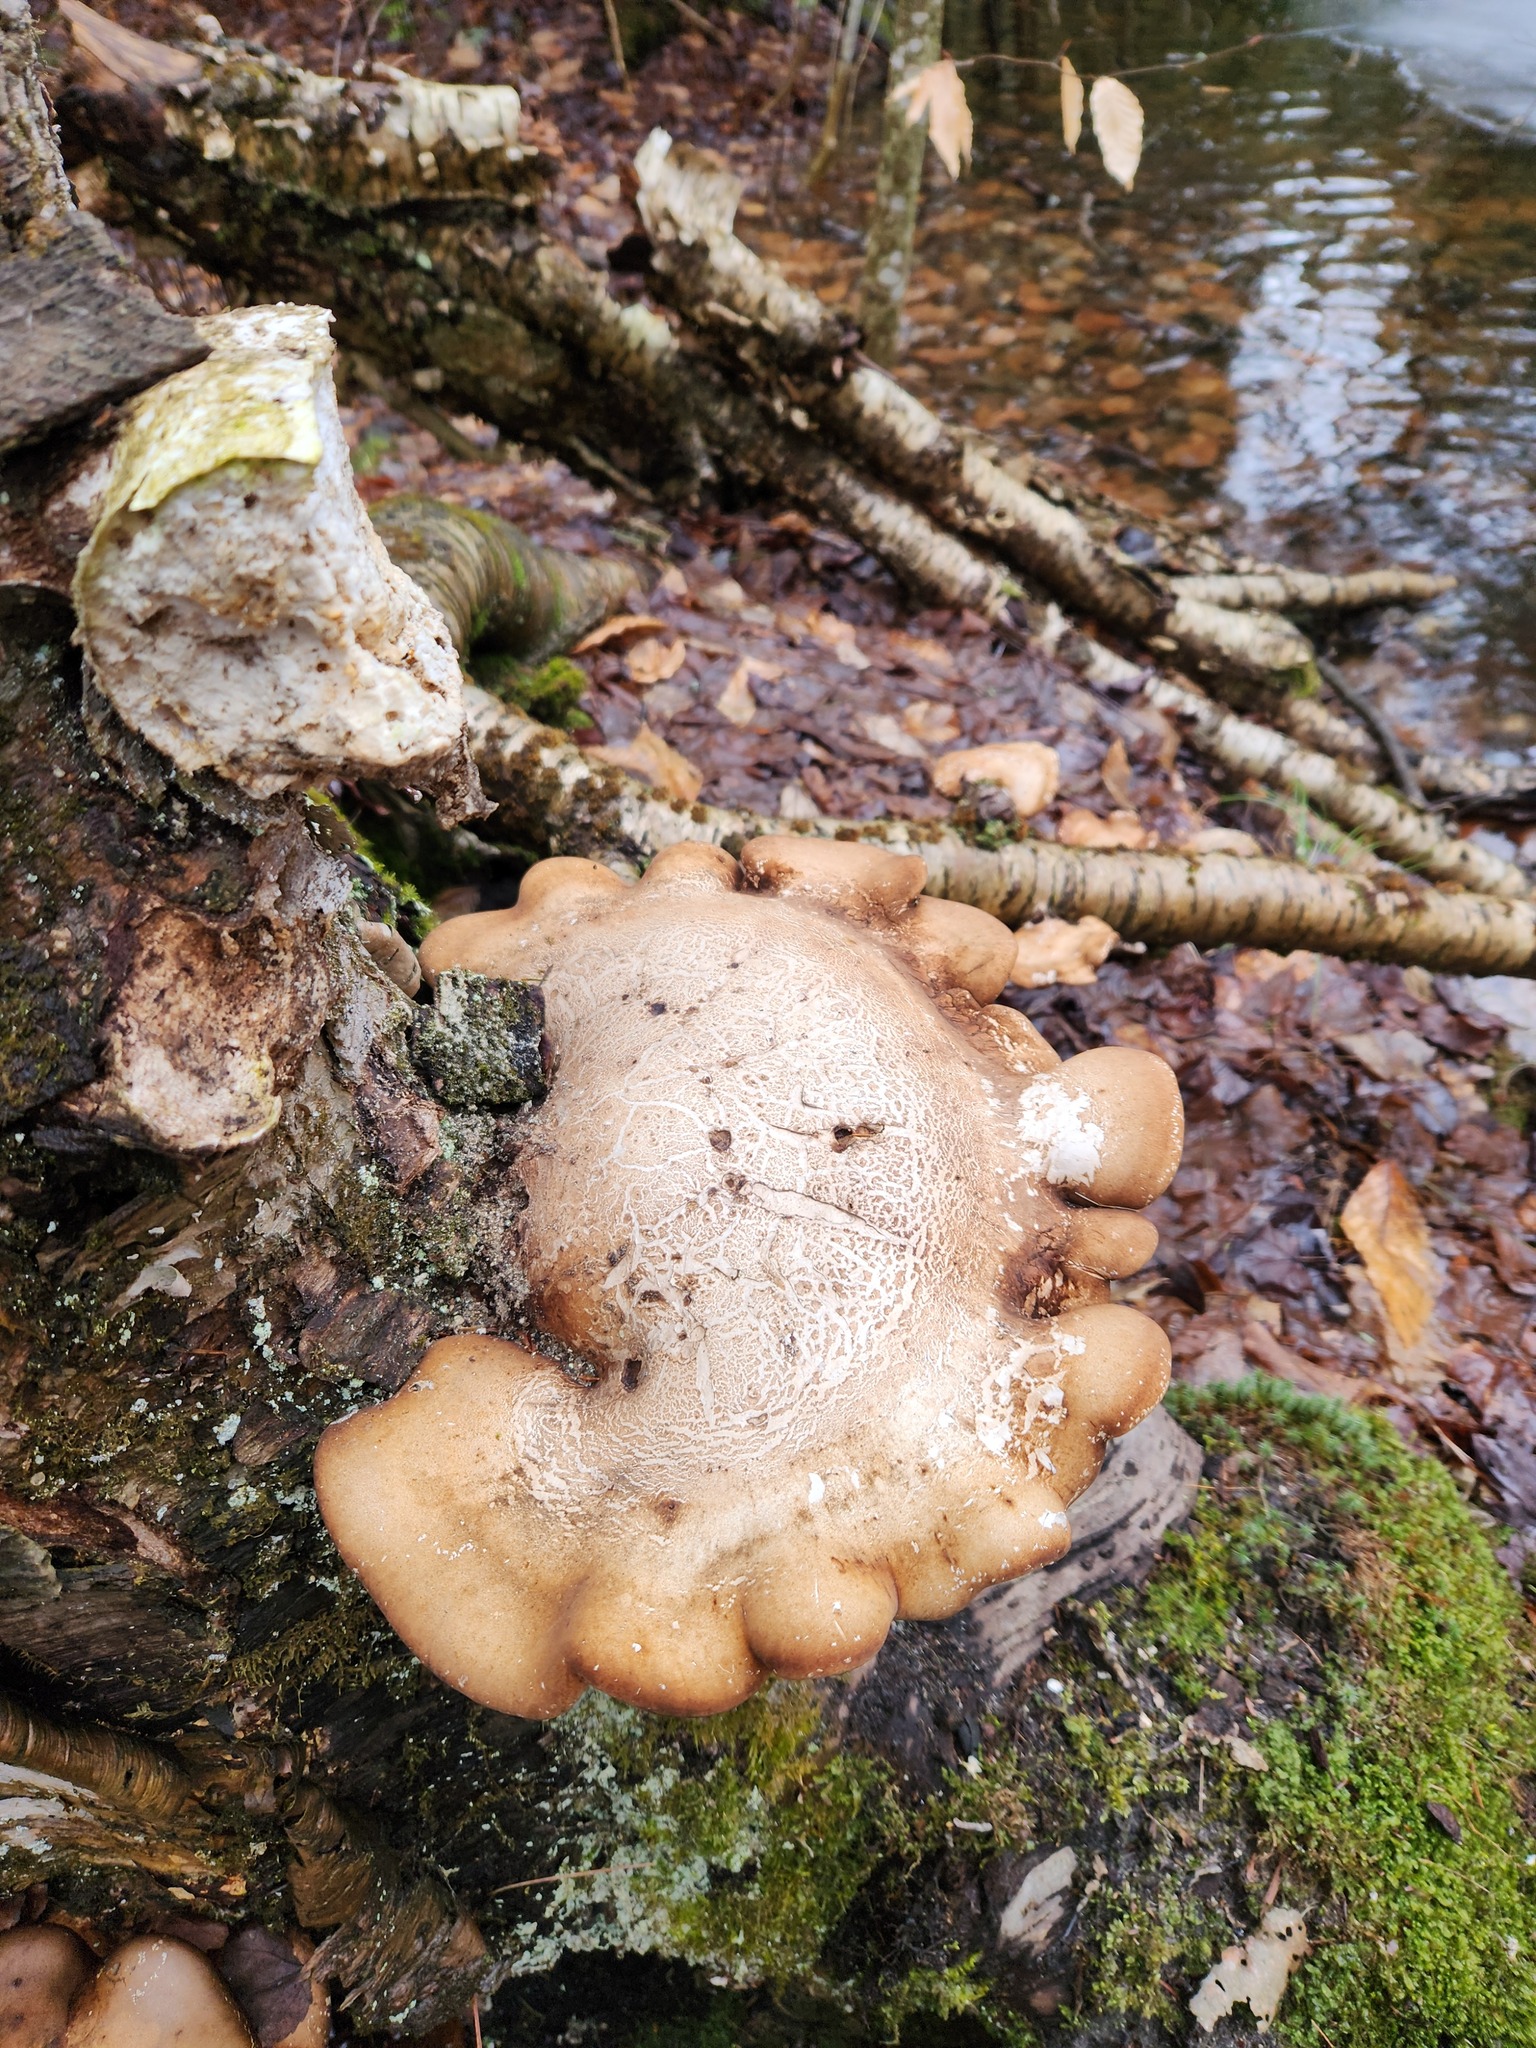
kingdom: Fungi
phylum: Basidiomycota
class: Agaricomycetes
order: Polyporales
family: Fomitopsidaceae
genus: Fomitopsis
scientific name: Fomitopsis betulina
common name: Birch polypore
